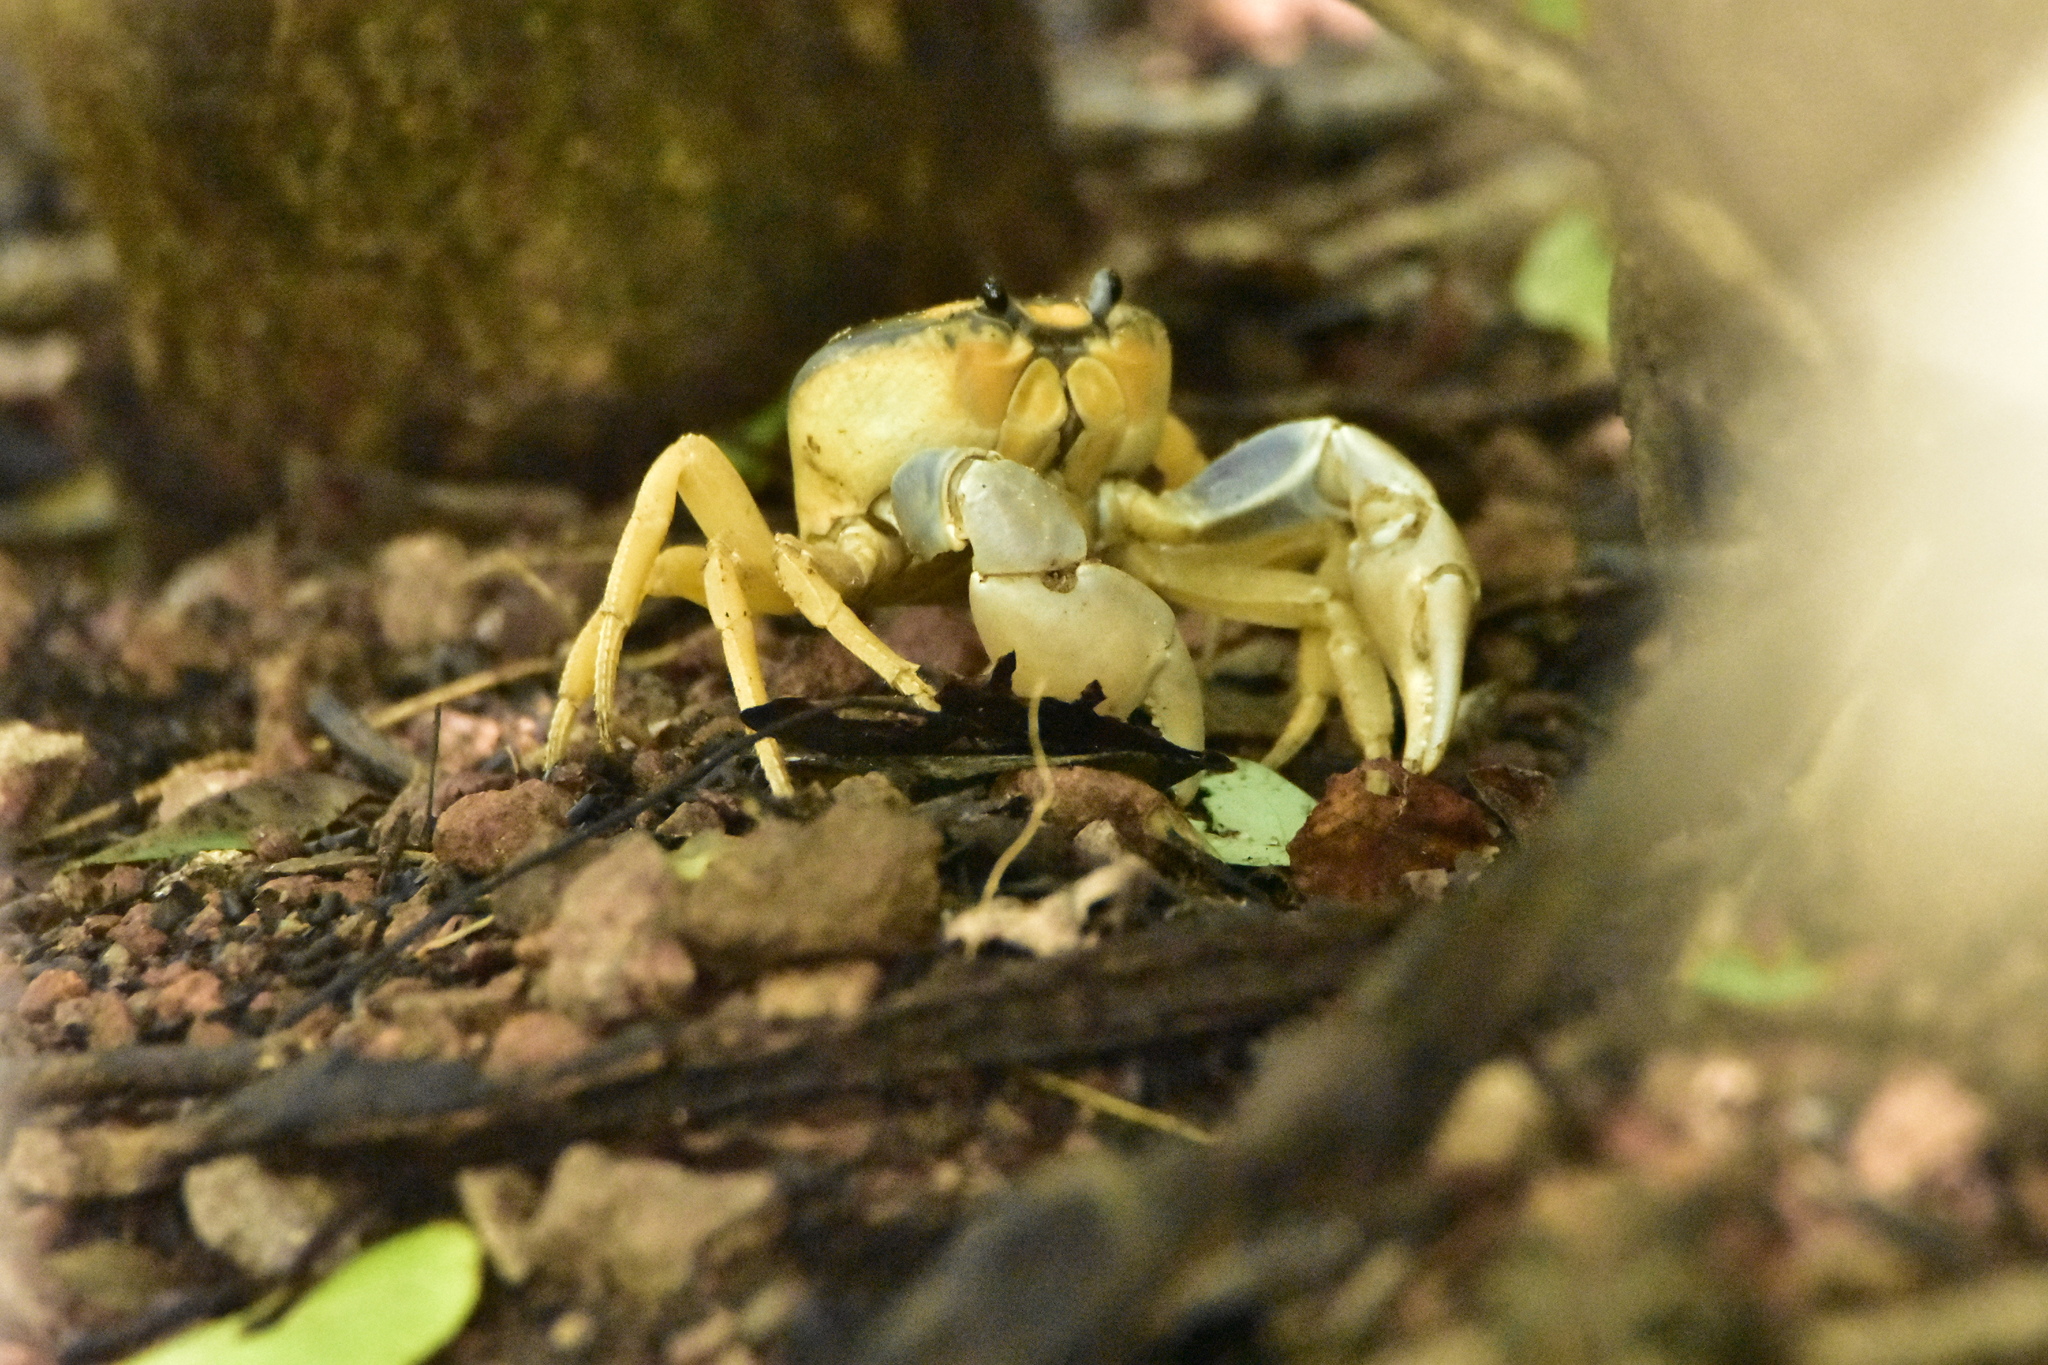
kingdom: Animalia
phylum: Arthropoda
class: Malacostraca
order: Decapoda
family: Gecarcinidae
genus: Gecarcinus
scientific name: Gecarcinus quadratus
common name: Halloween crab
